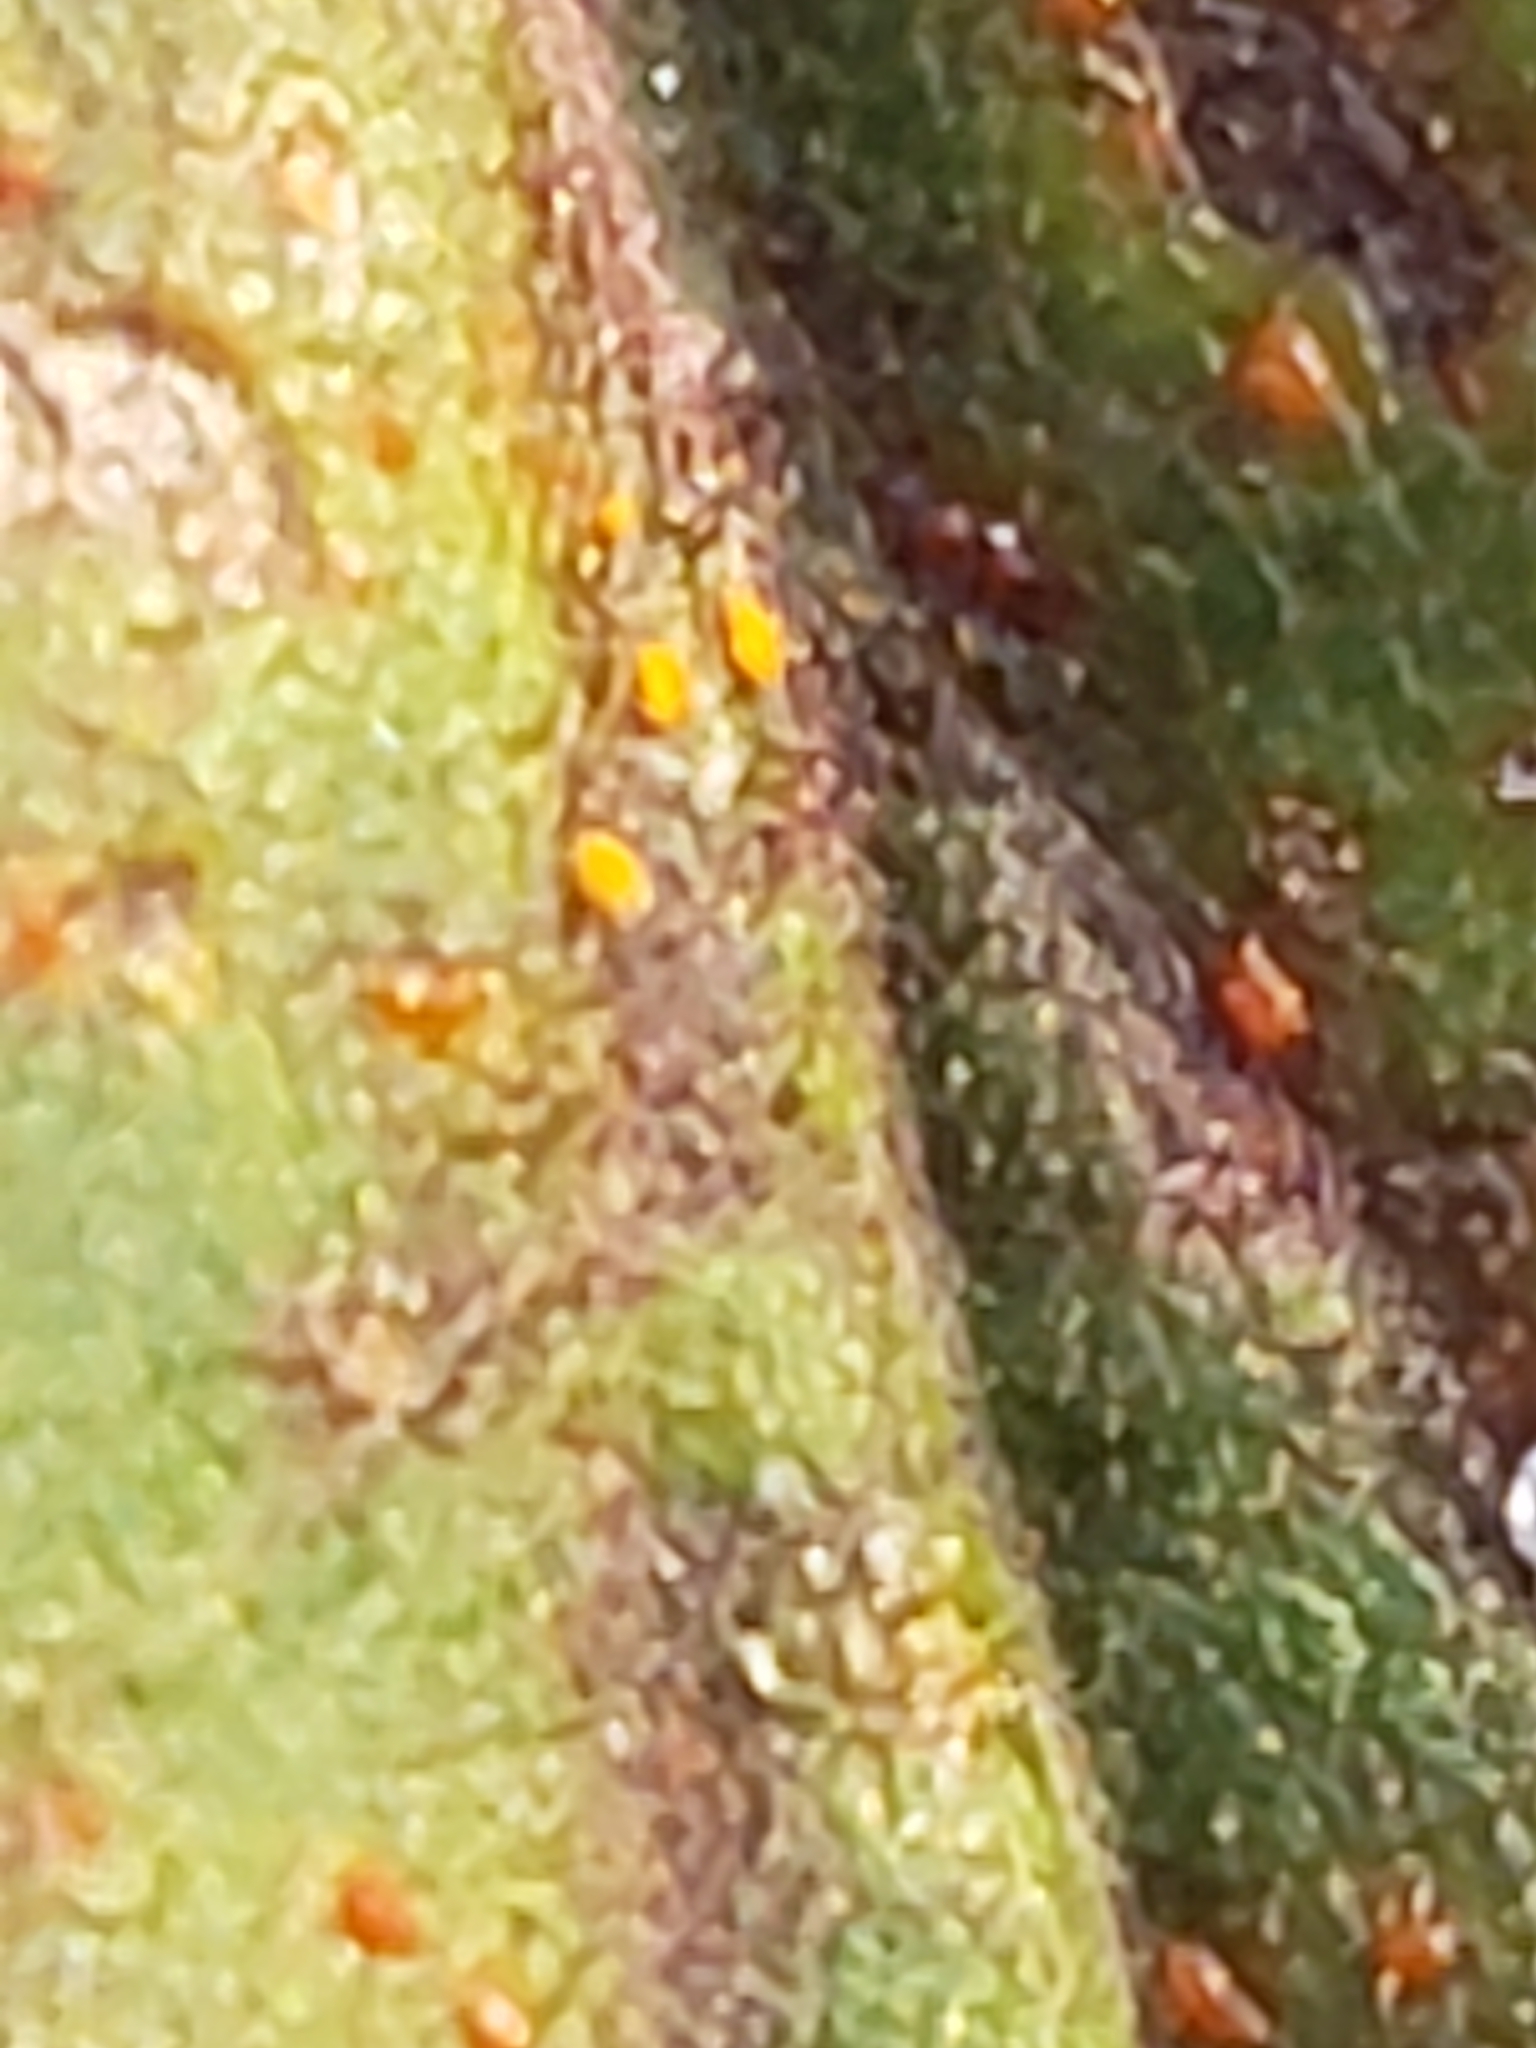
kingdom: Fungi
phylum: Basidiomycota
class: Pucciniomycetes
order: Pucciniales
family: Coleosporiaceae
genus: Coleosporium
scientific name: Coleosporium asterum
